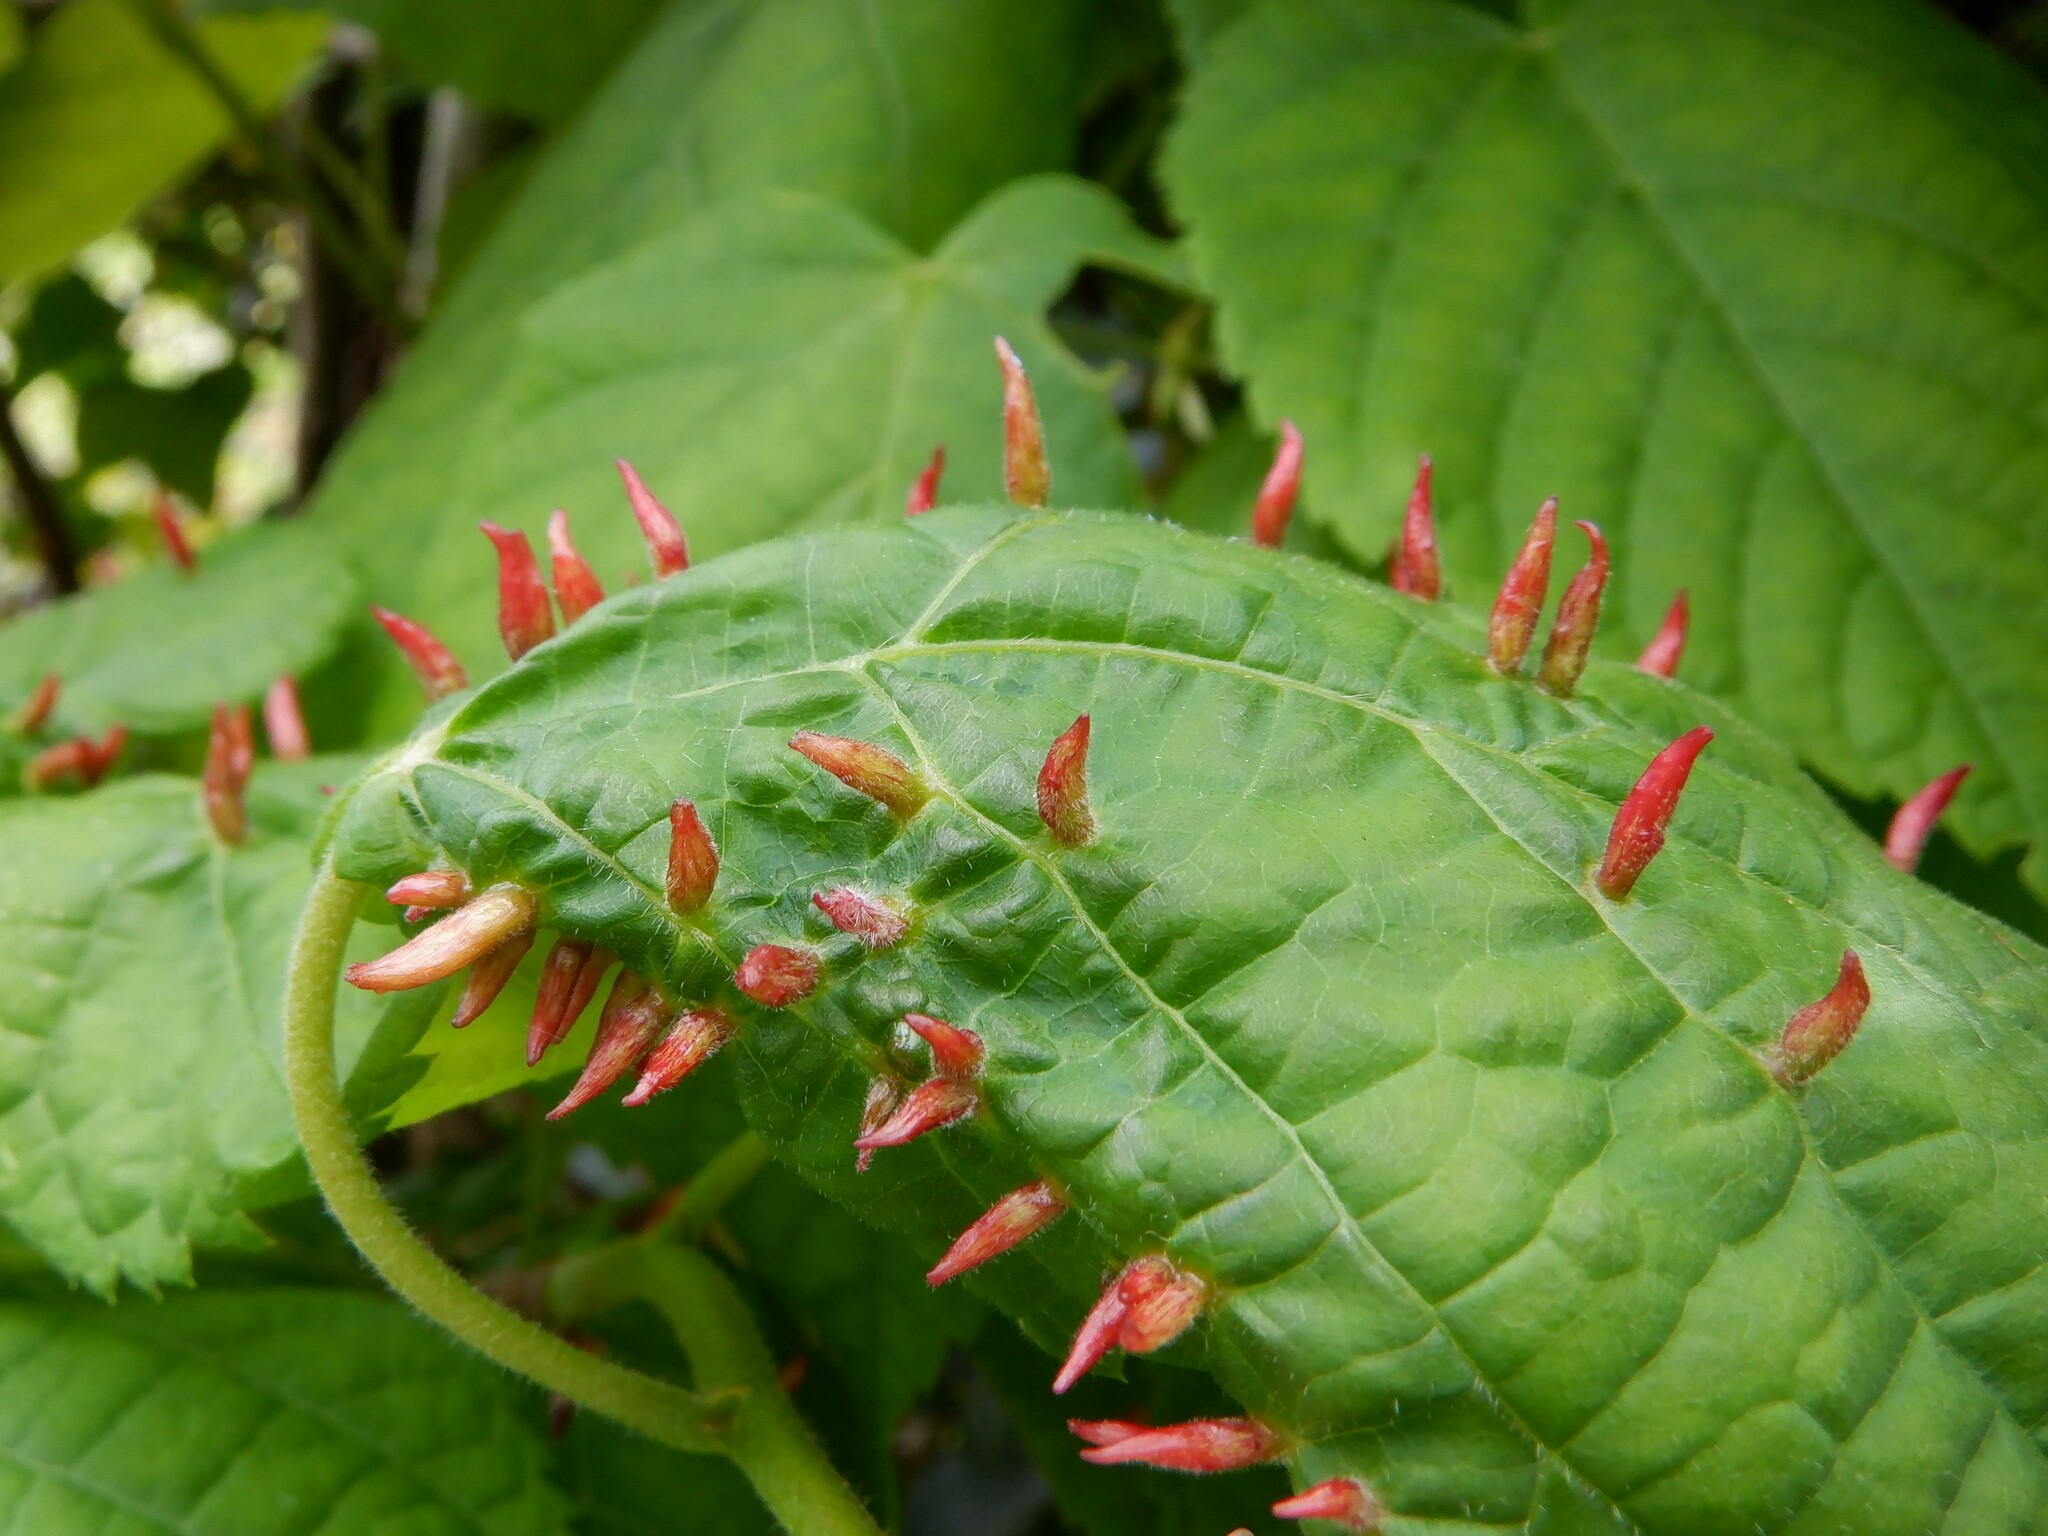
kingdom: Animalia
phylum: Arthropoda
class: Arachnida
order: Trombidiformes
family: Eriophyidae
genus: Eriophyes
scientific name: Eriophyes tiliae
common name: Red nail gall mite
